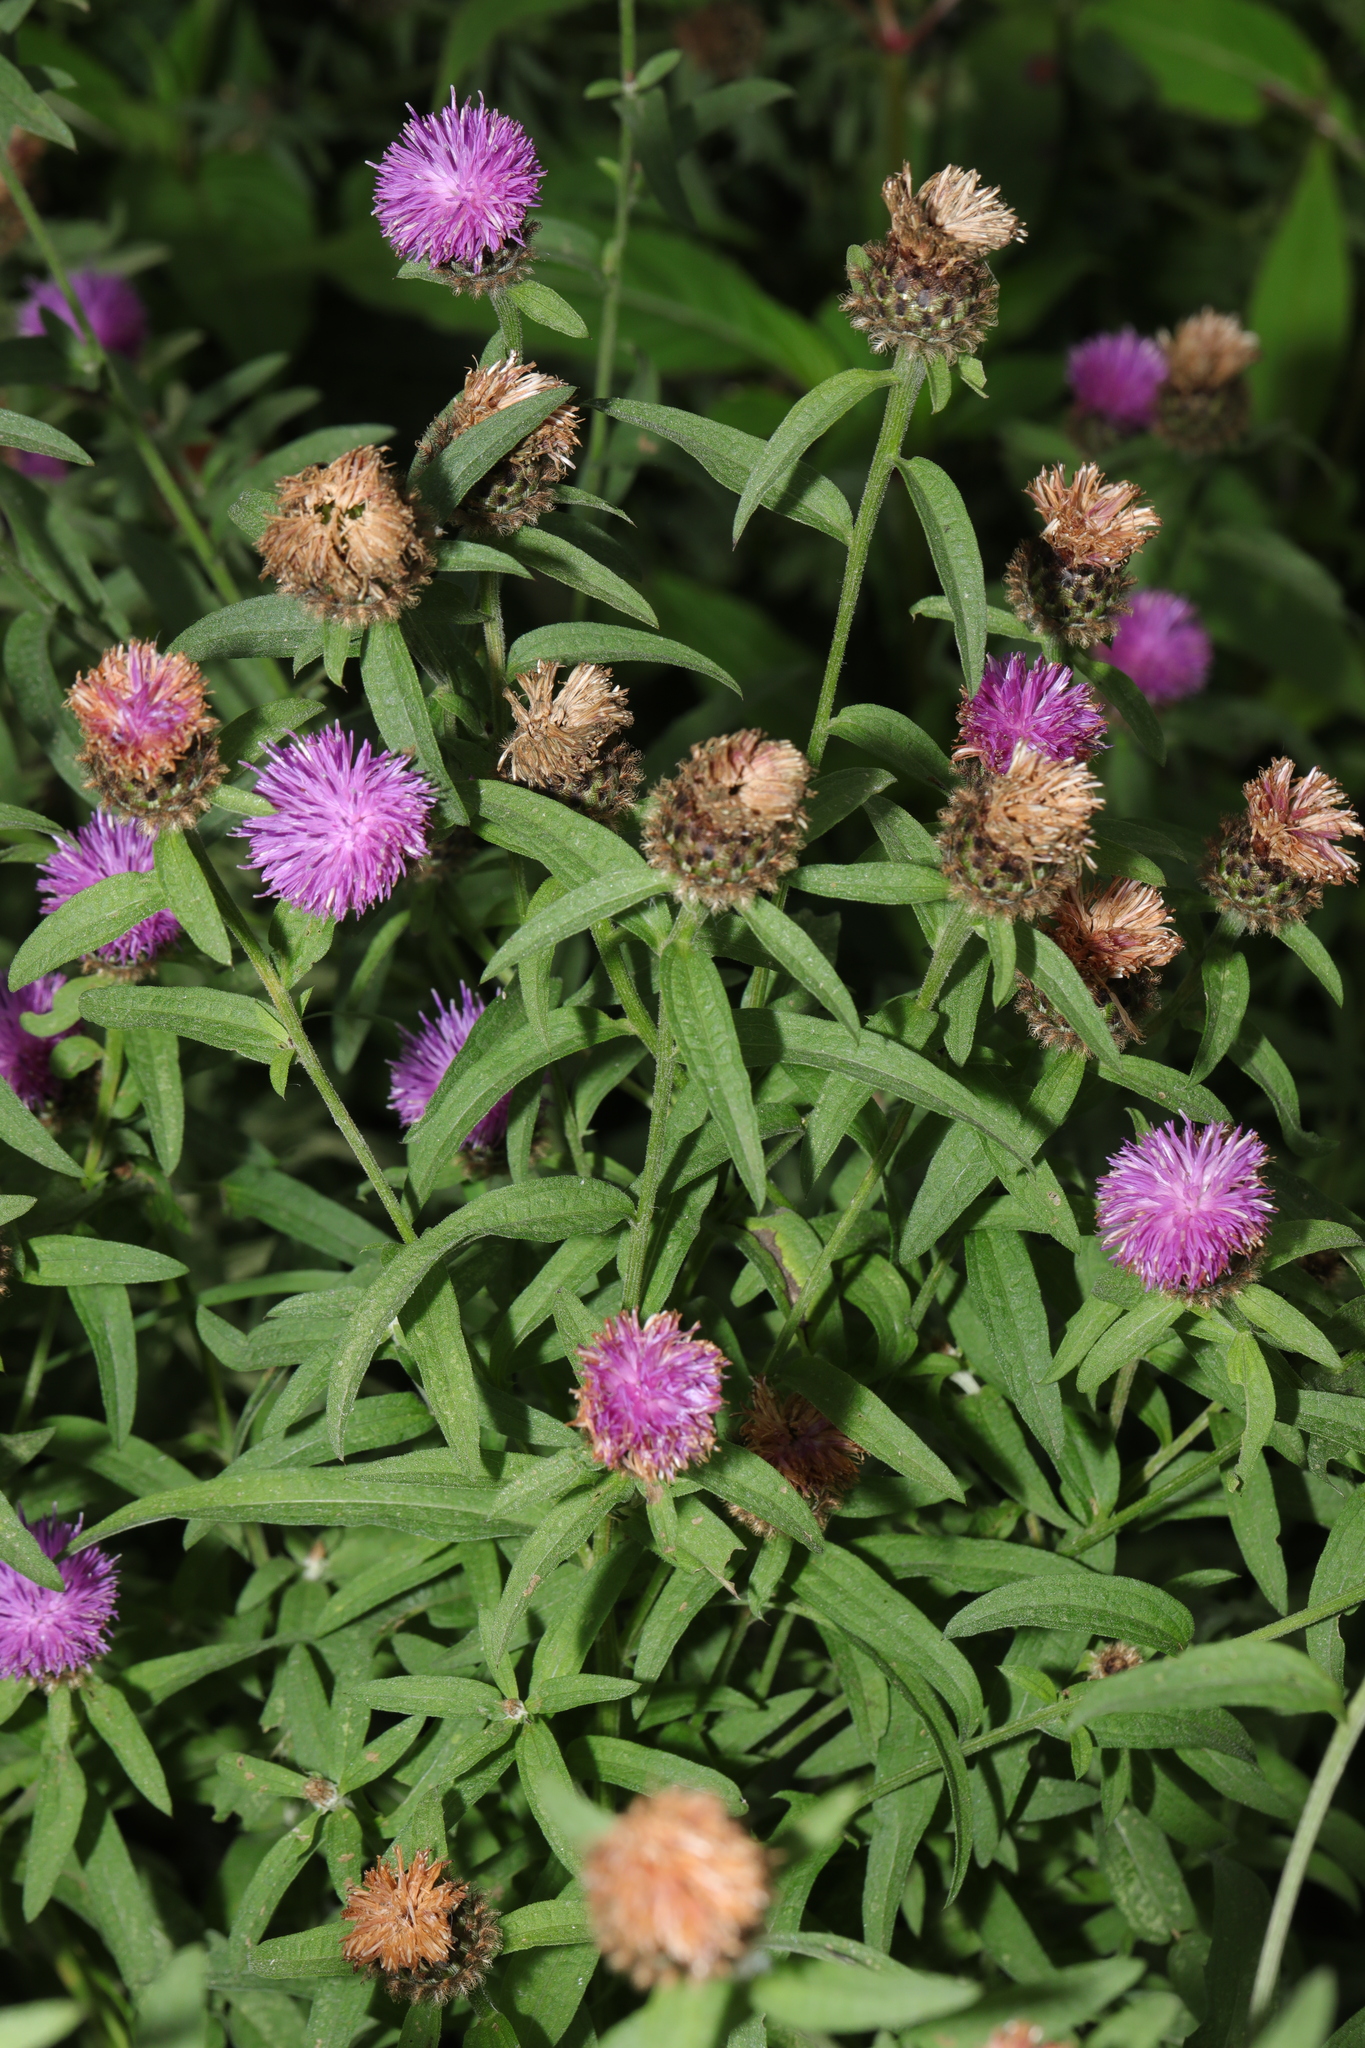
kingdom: Plantae
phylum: Tracheophyta
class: Magnoliopsida
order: Asterales
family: Asteraceae
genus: Centaurea
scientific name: Centaurea nigra
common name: Lesser knapweed
